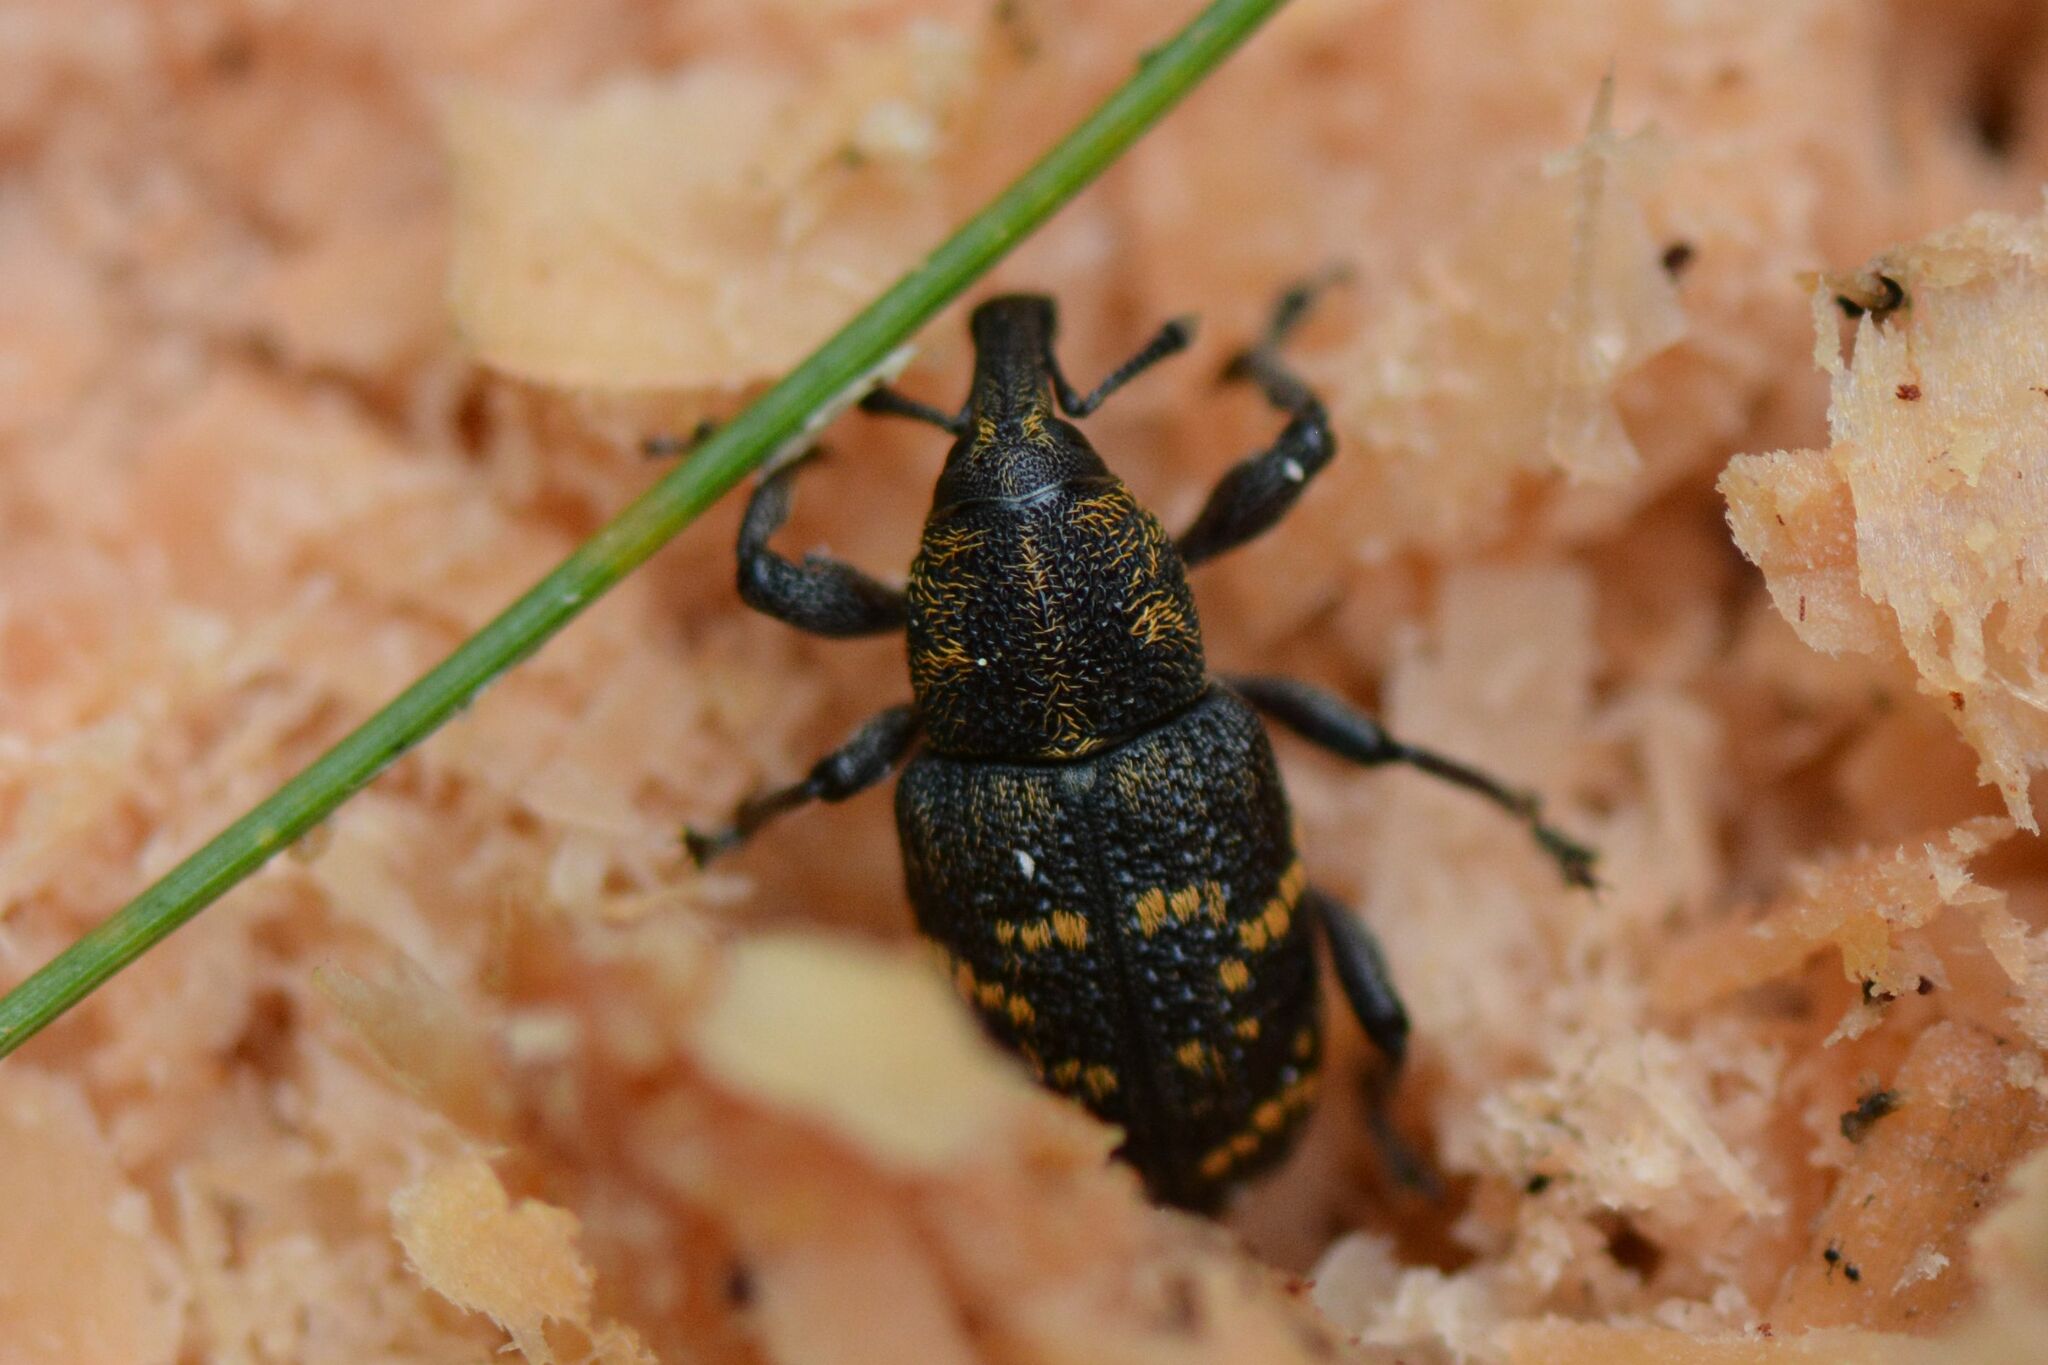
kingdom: Animalia
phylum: Arthropoda
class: Insecta
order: Coleoptera
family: Curculionidae
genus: Hylobius
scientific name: Hylobius abietis
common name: Large pine weevil
